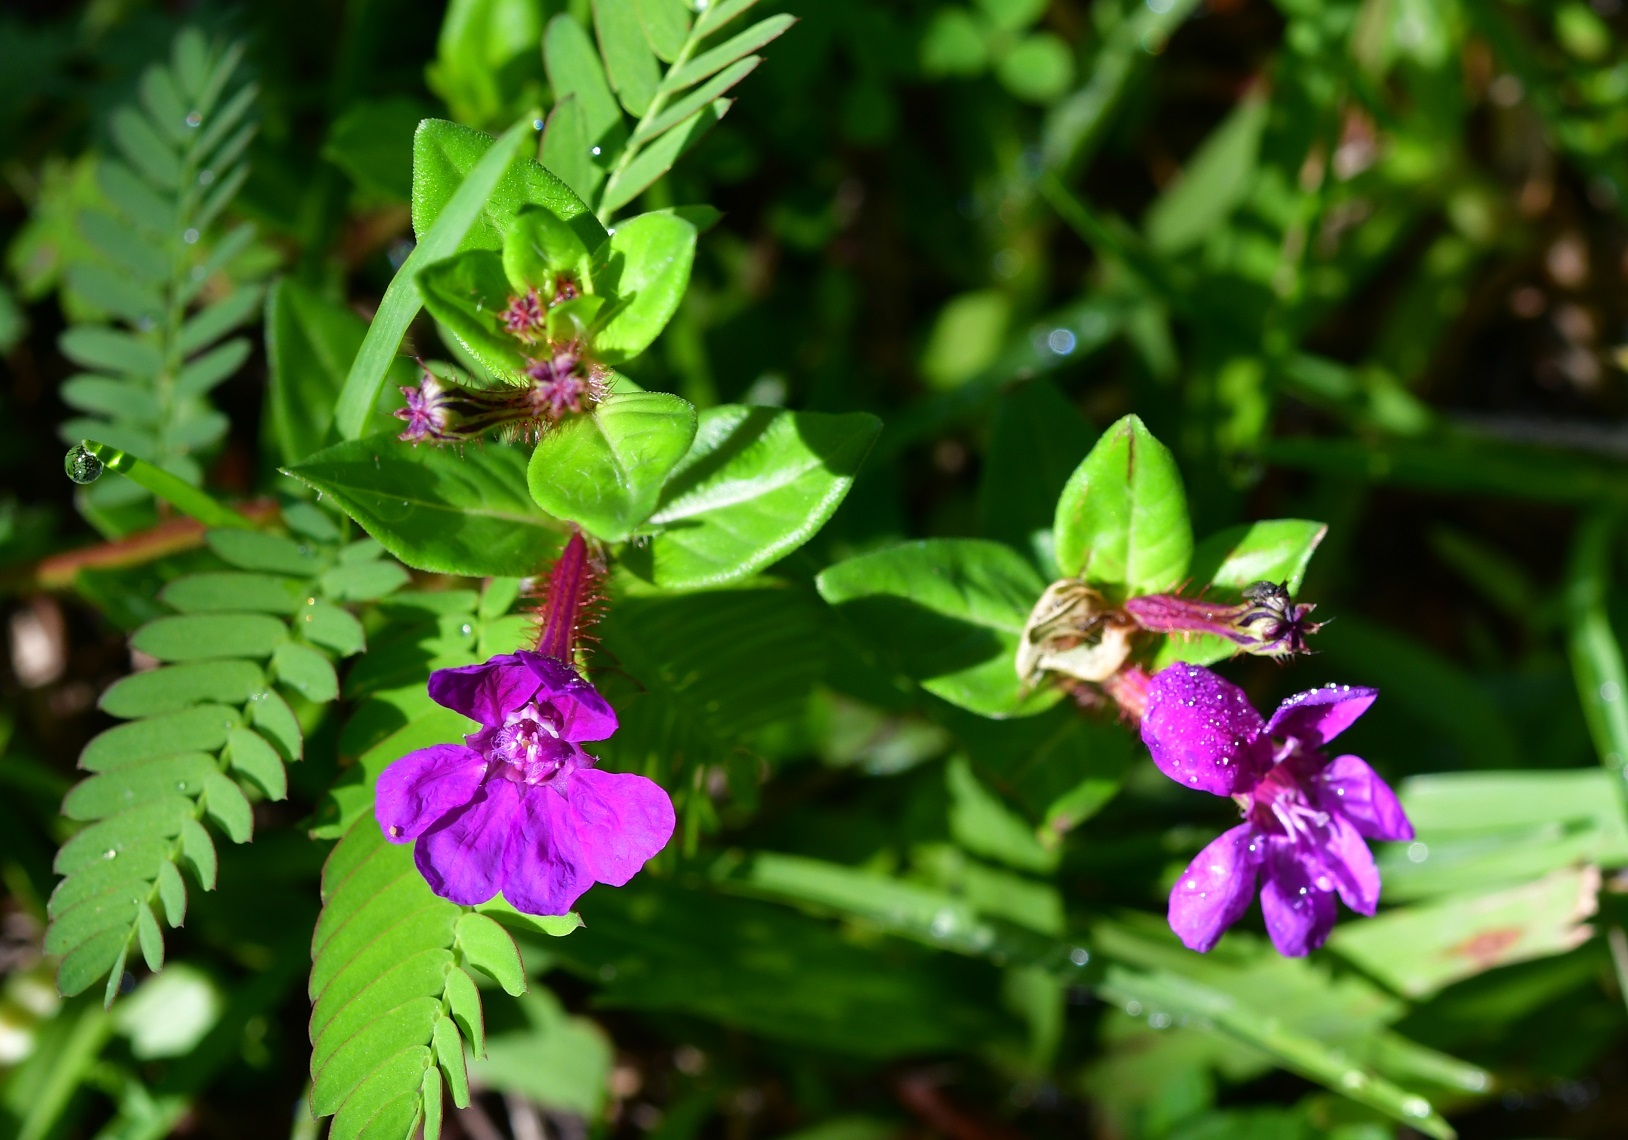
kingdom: Plantae
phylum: Tracheophyta
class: Magnoliopsida
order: Myrtales
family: Lythraceae
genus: Cuphea
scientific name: Cuphea aequipetala
